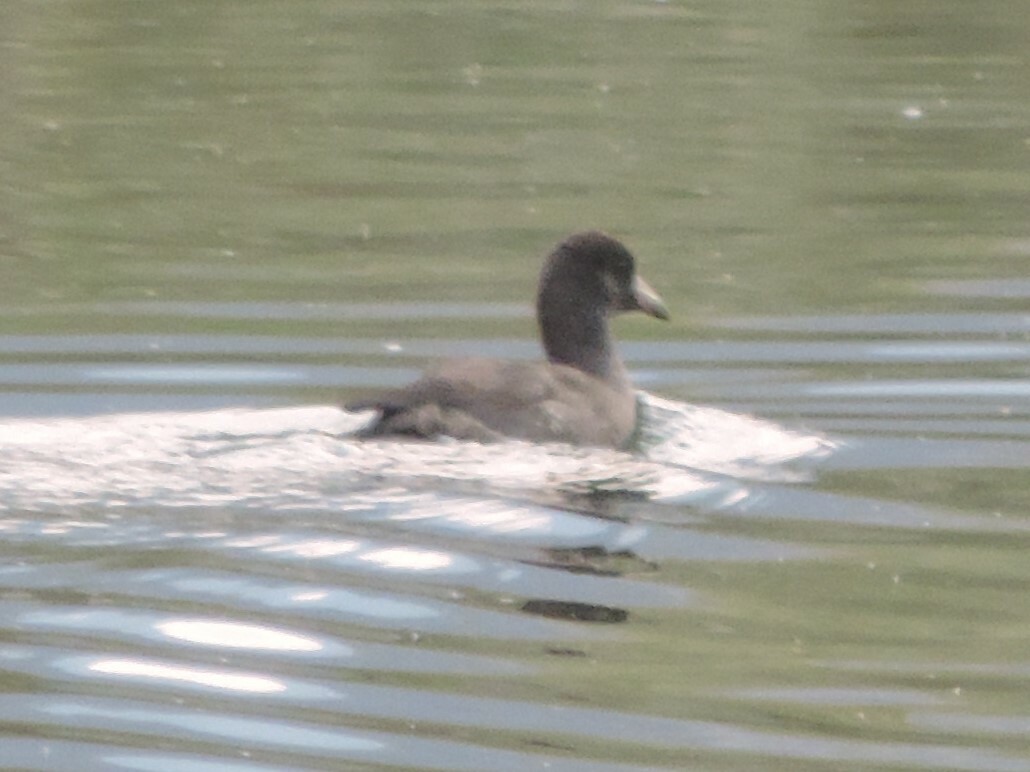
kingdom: Animalia
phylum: Chordata
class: Aves
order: Gruiformes
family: Rallidae
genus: Fulica
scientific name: Fulica americana
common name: American coot
